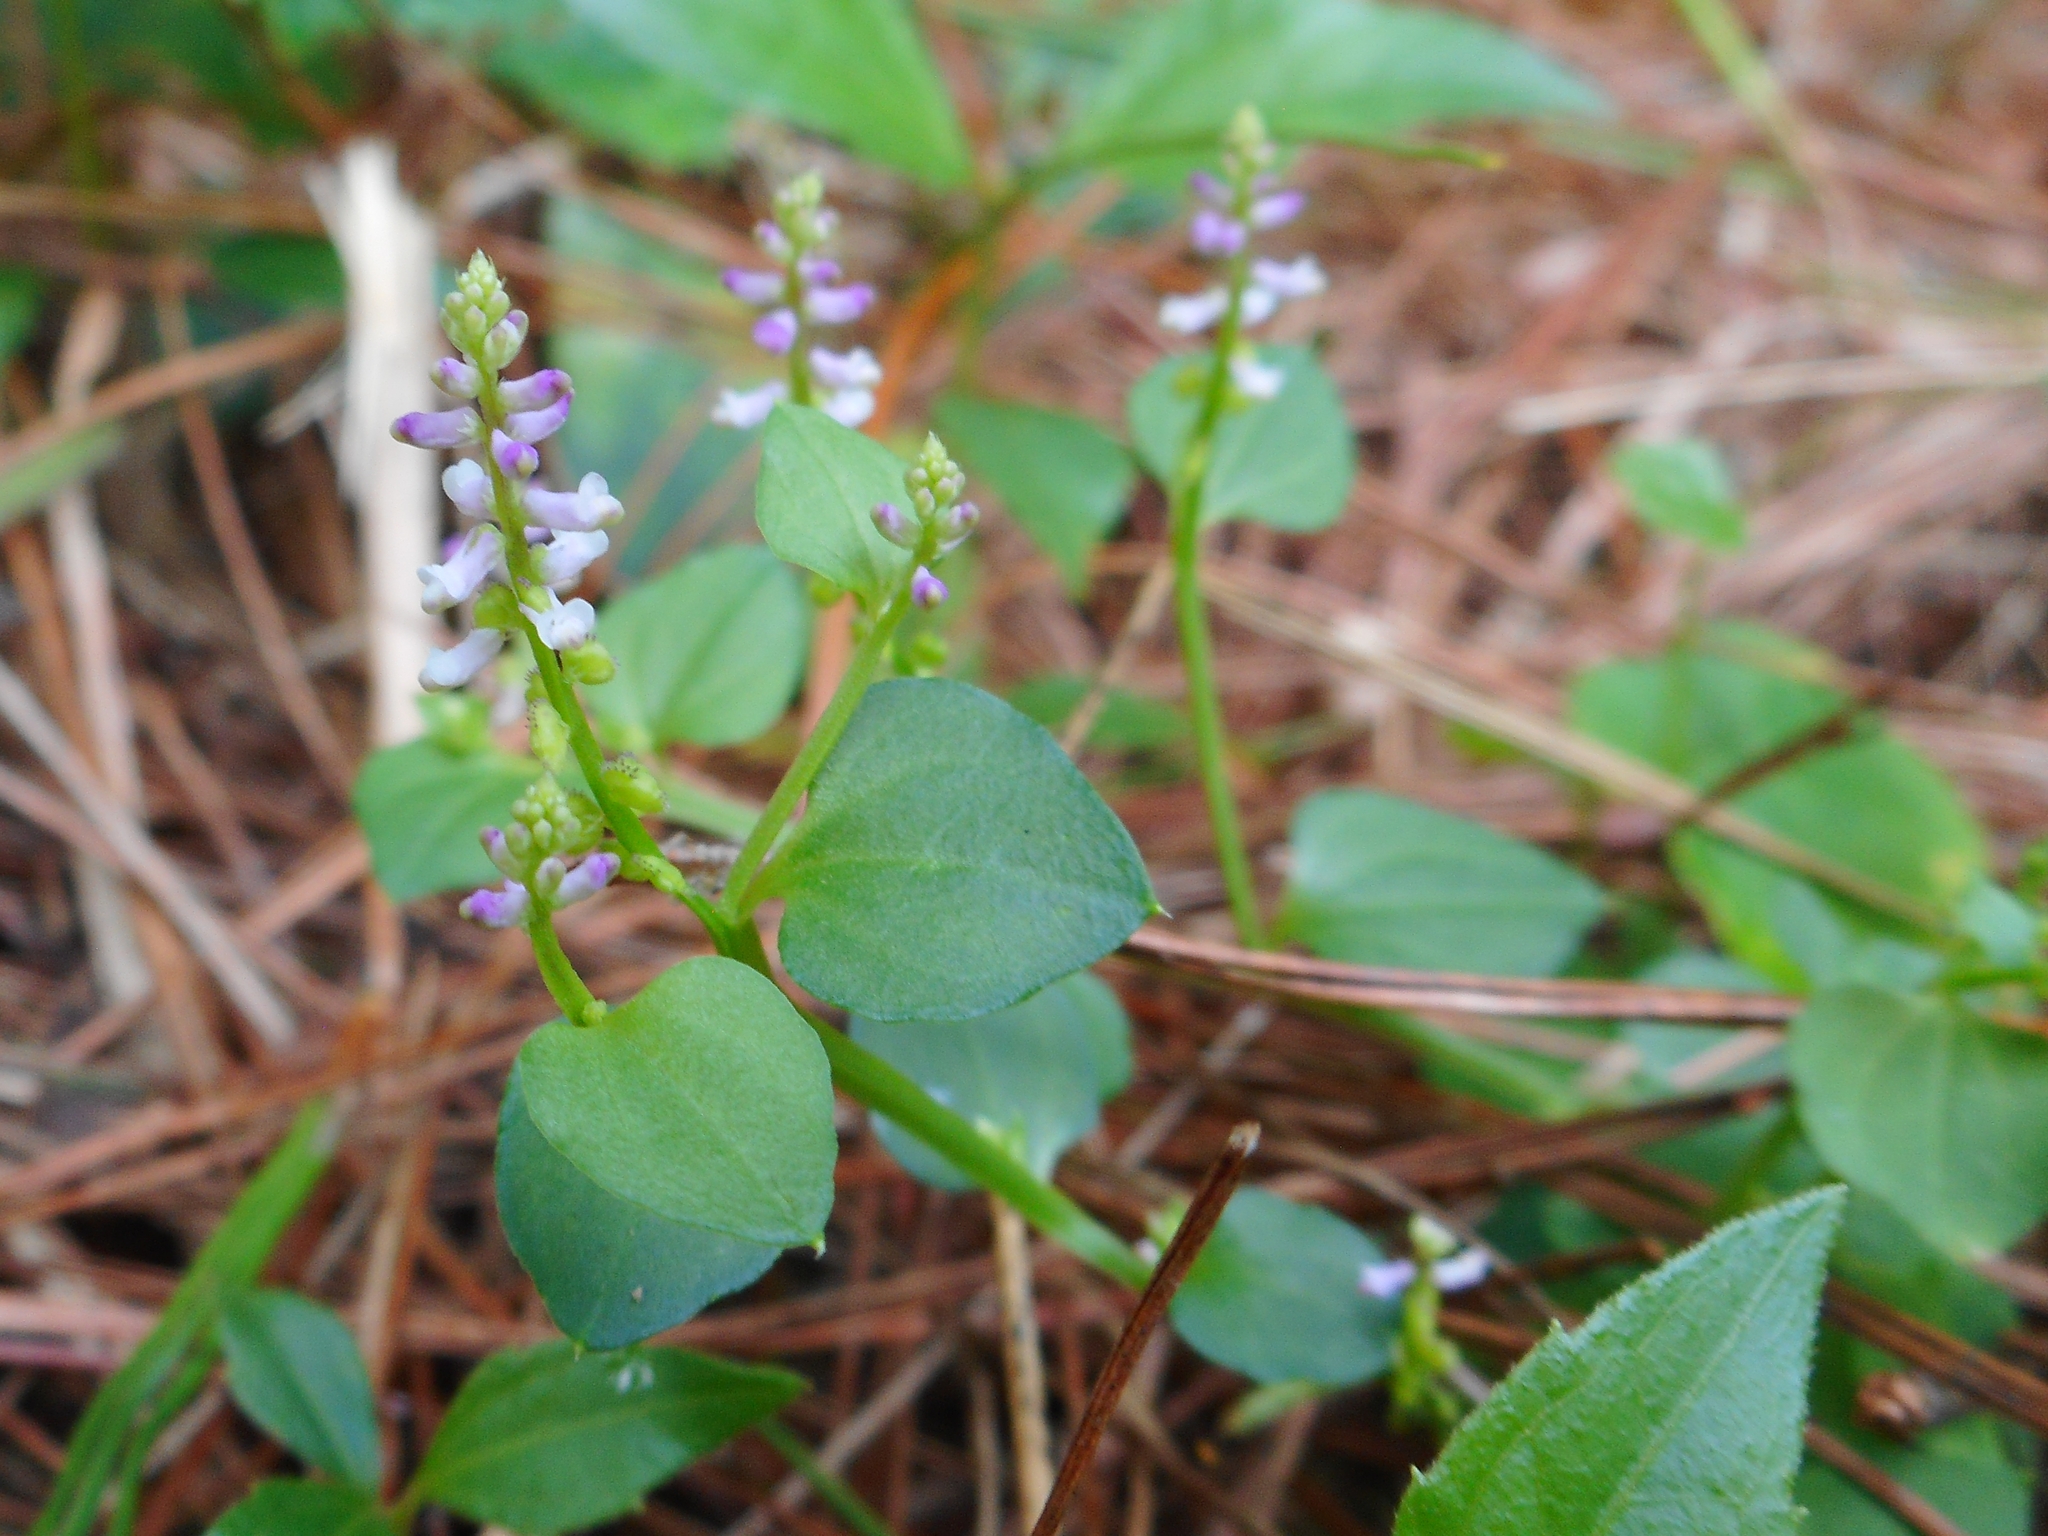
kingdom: Plantae
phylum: Tracheophyta
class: Magnoliopsida
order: Fabales
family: Polygalaceae
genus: Salomonia
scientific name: Salomonia cantoniensis
